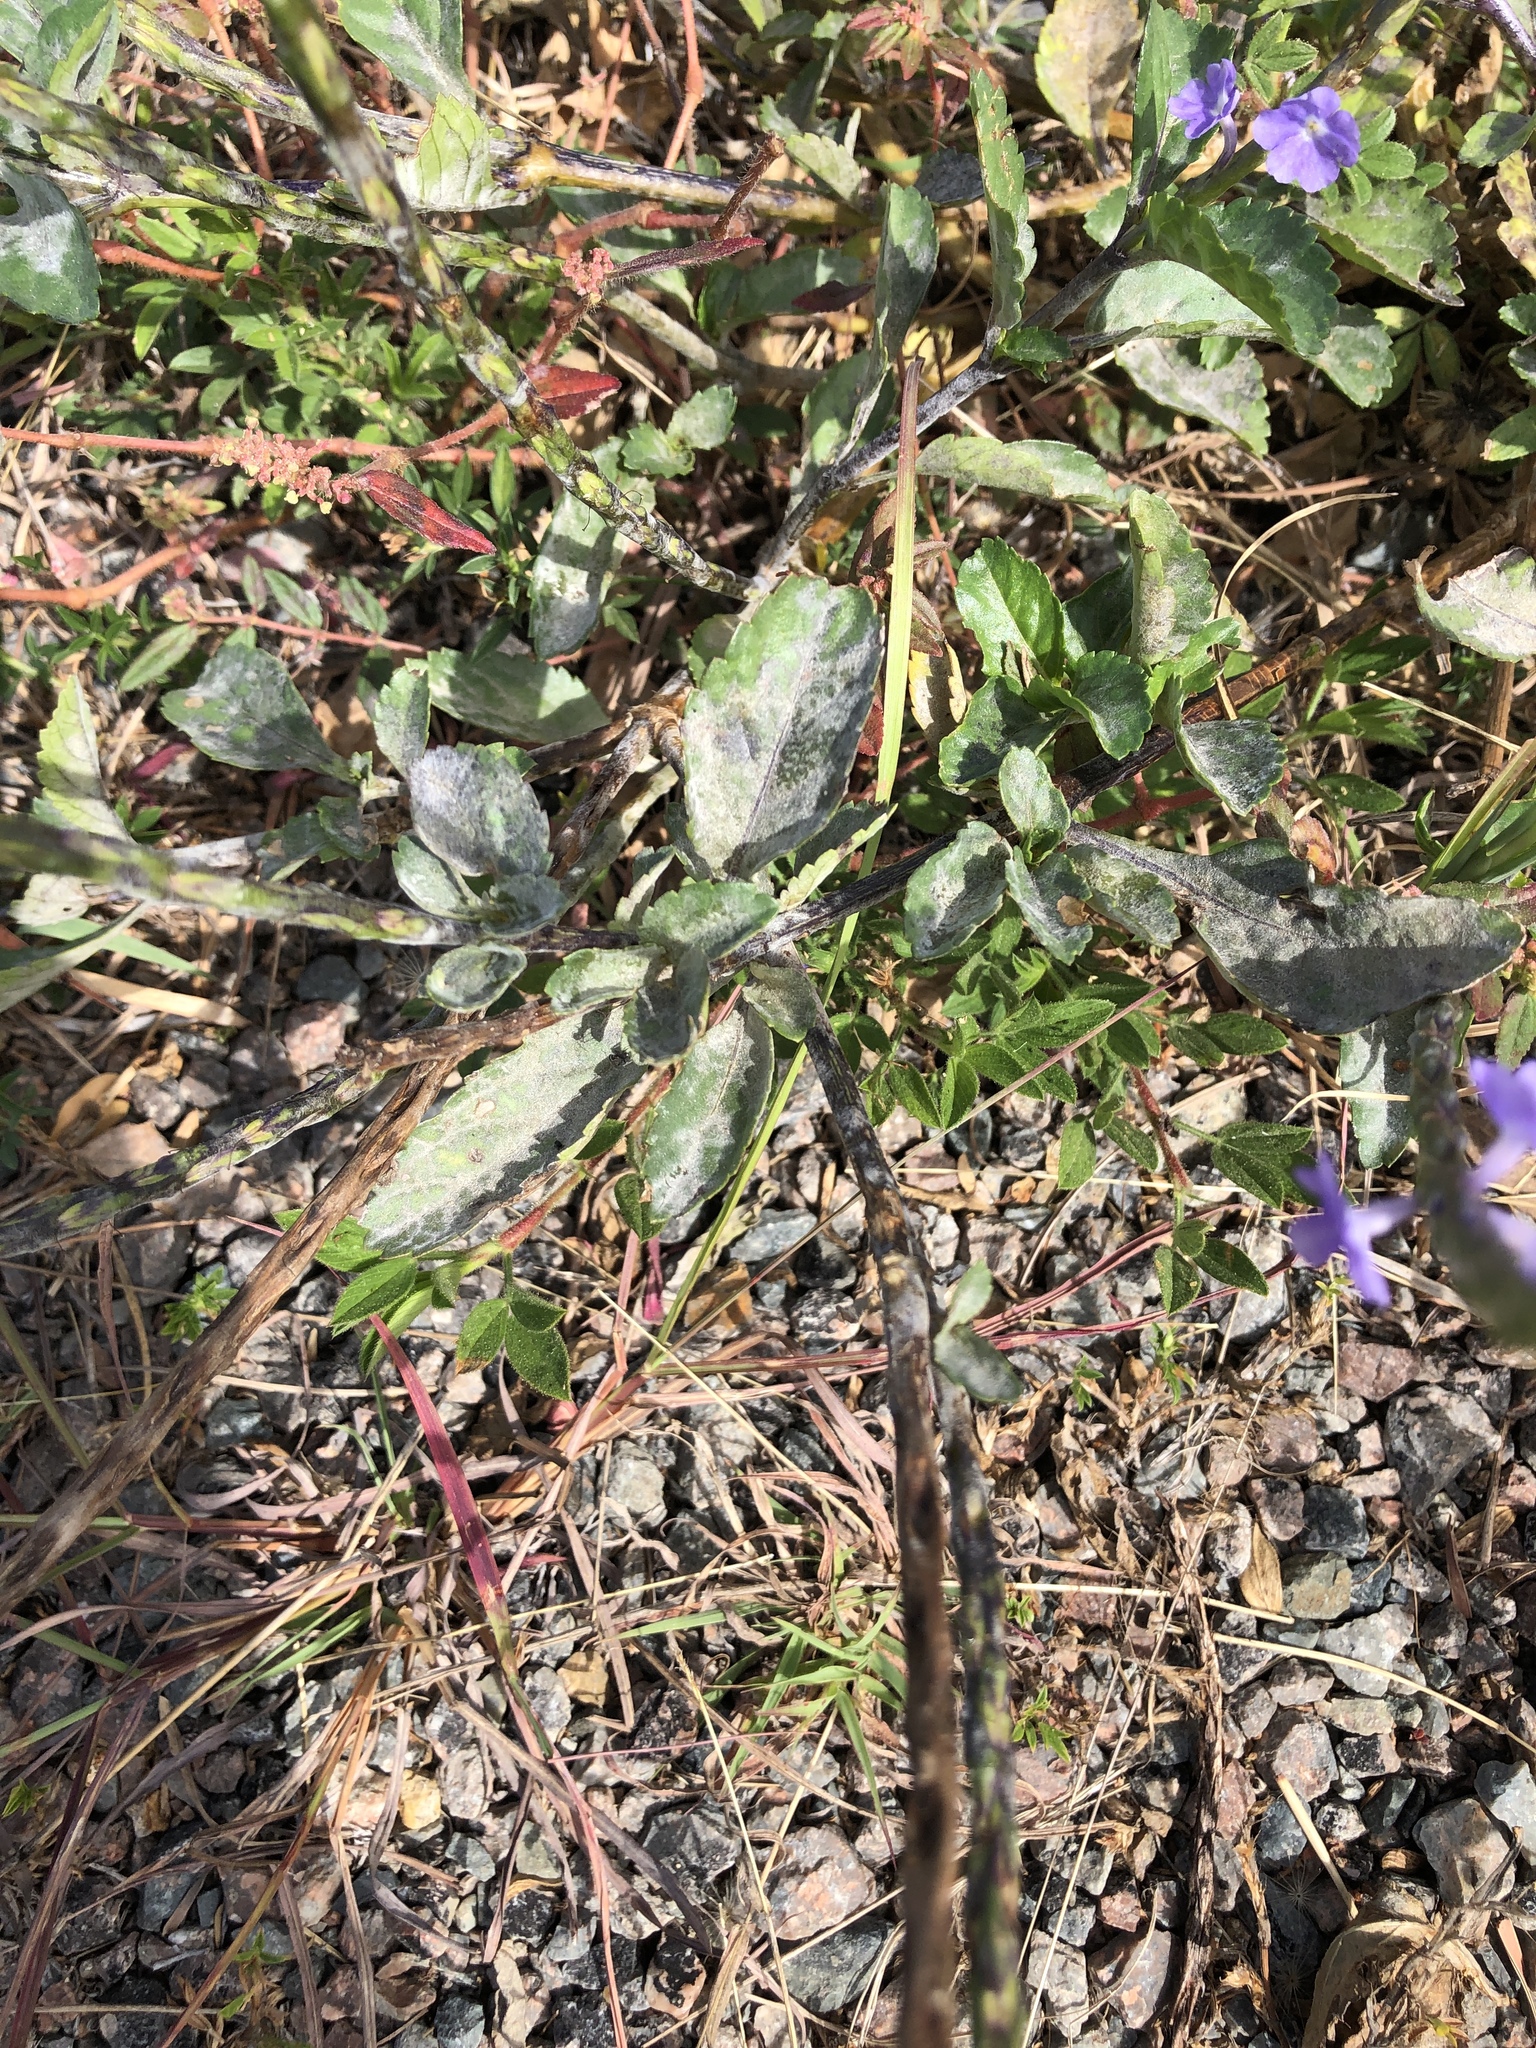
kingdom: Plantae
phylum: Tracheophyta
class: Magnoliopsida
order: Lamiales
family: Verbenaceae
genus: Stachytarpheta
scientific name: Stachytarpheta jamaicensis
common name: Light-blue snakeweed
